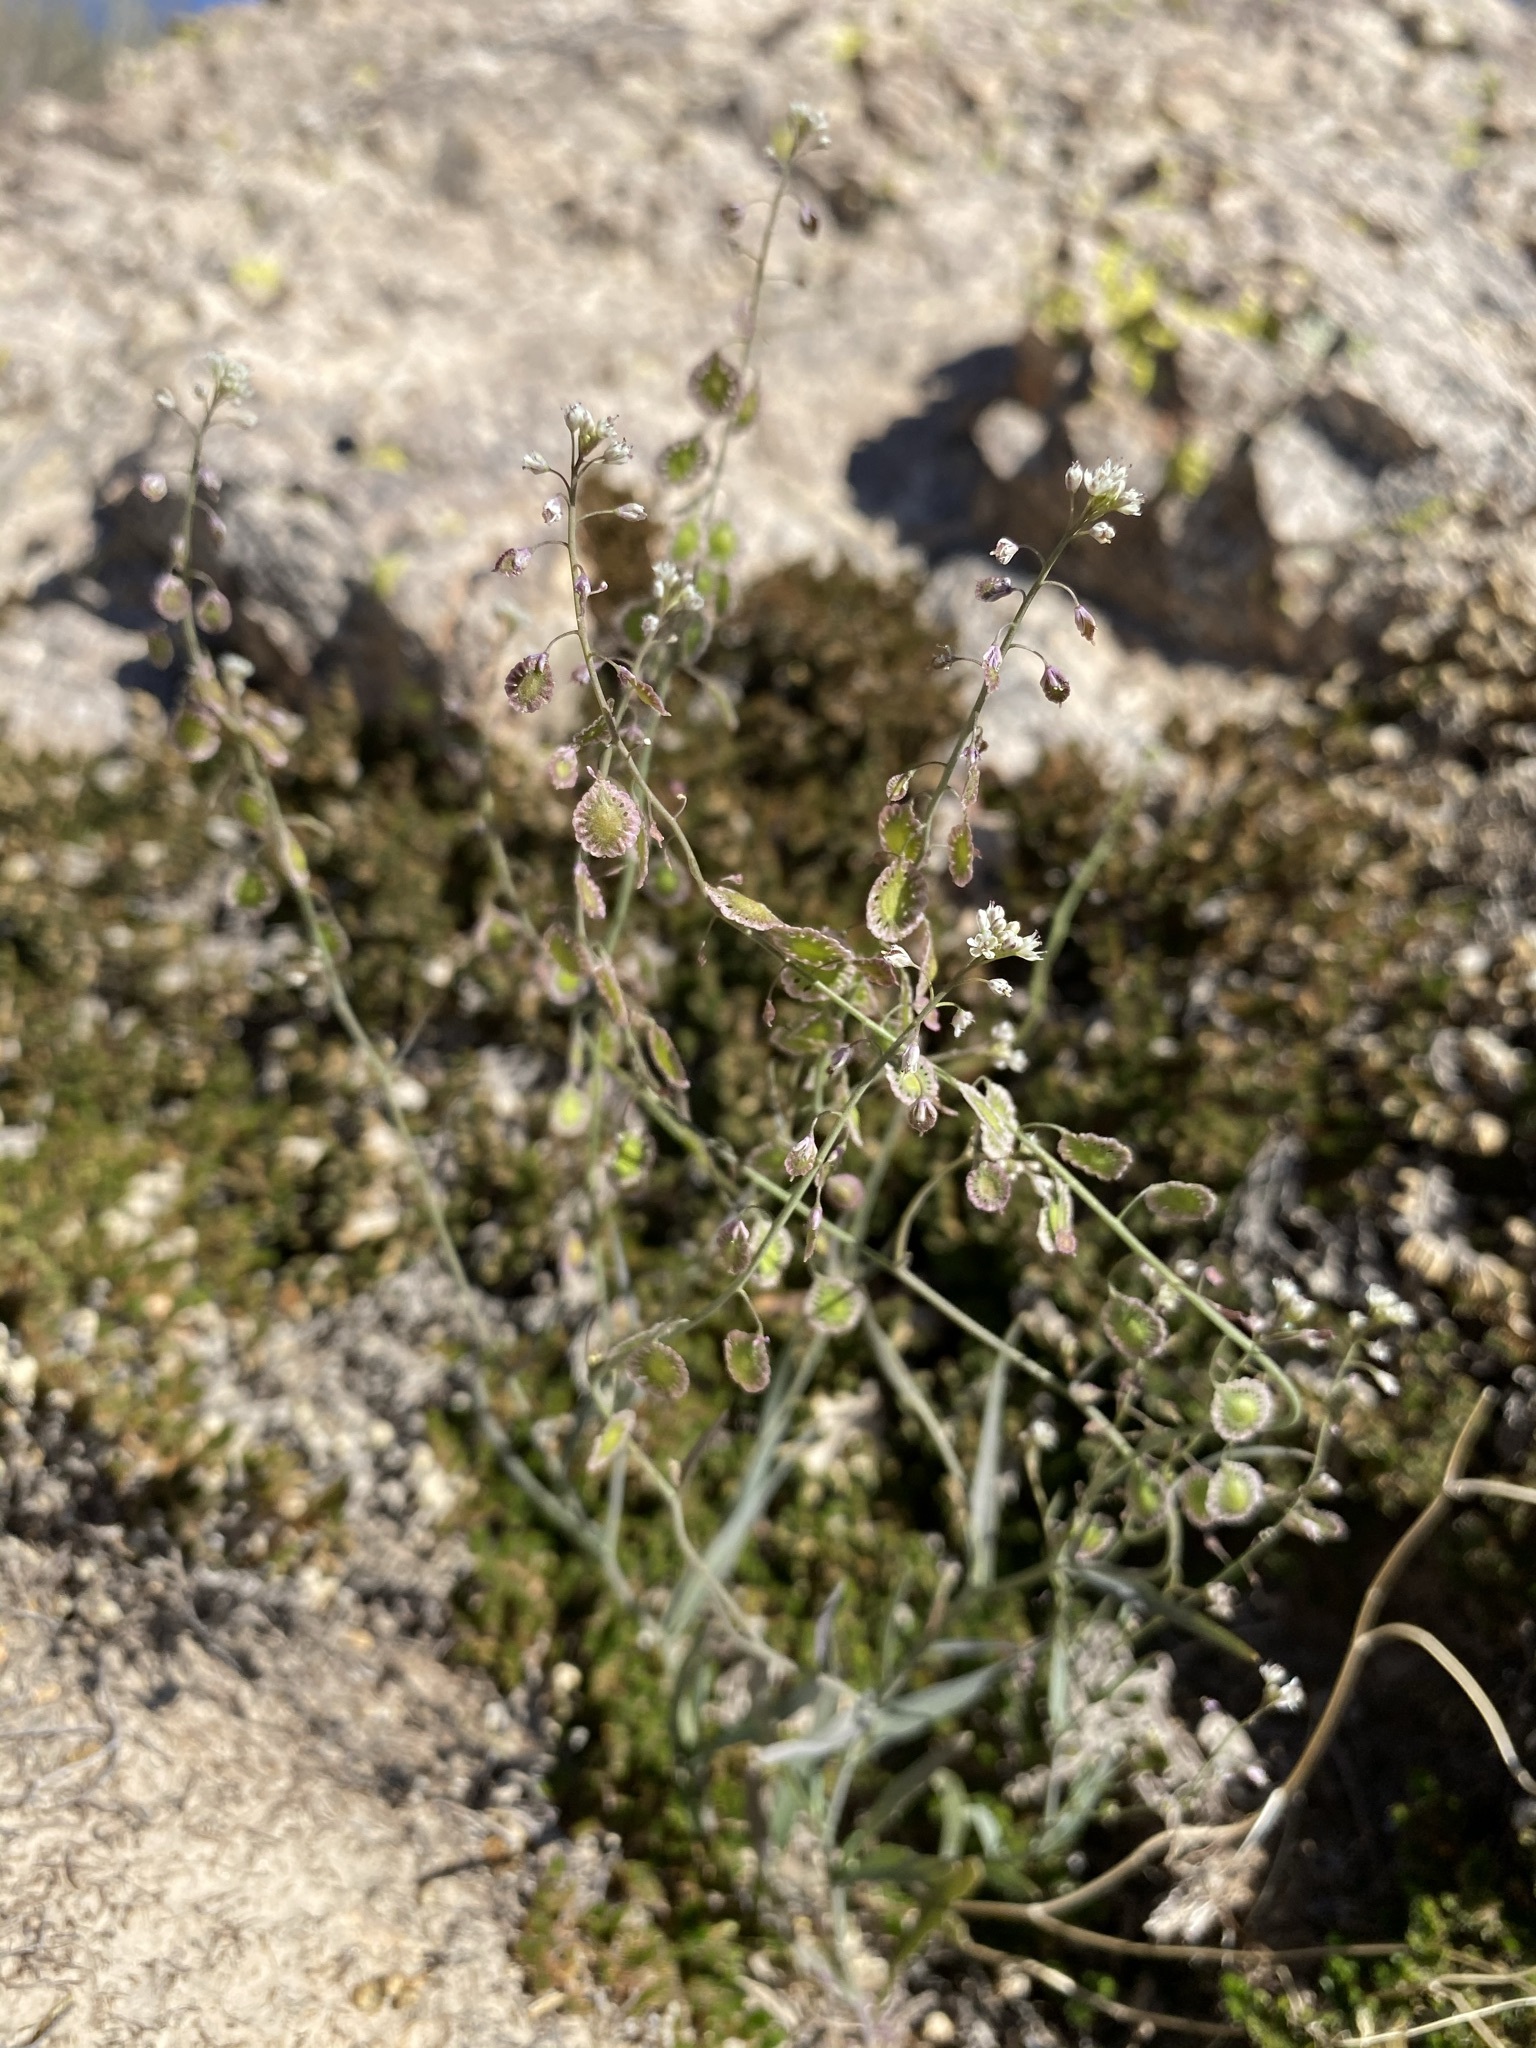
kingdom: Plantae
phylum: Tracheophyta
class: Magnoliopsida
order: Brassicales
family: Brassicaceae
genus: Thysanocarpus
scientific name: Thysanocarpus curvipes
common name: Sand fringepod
